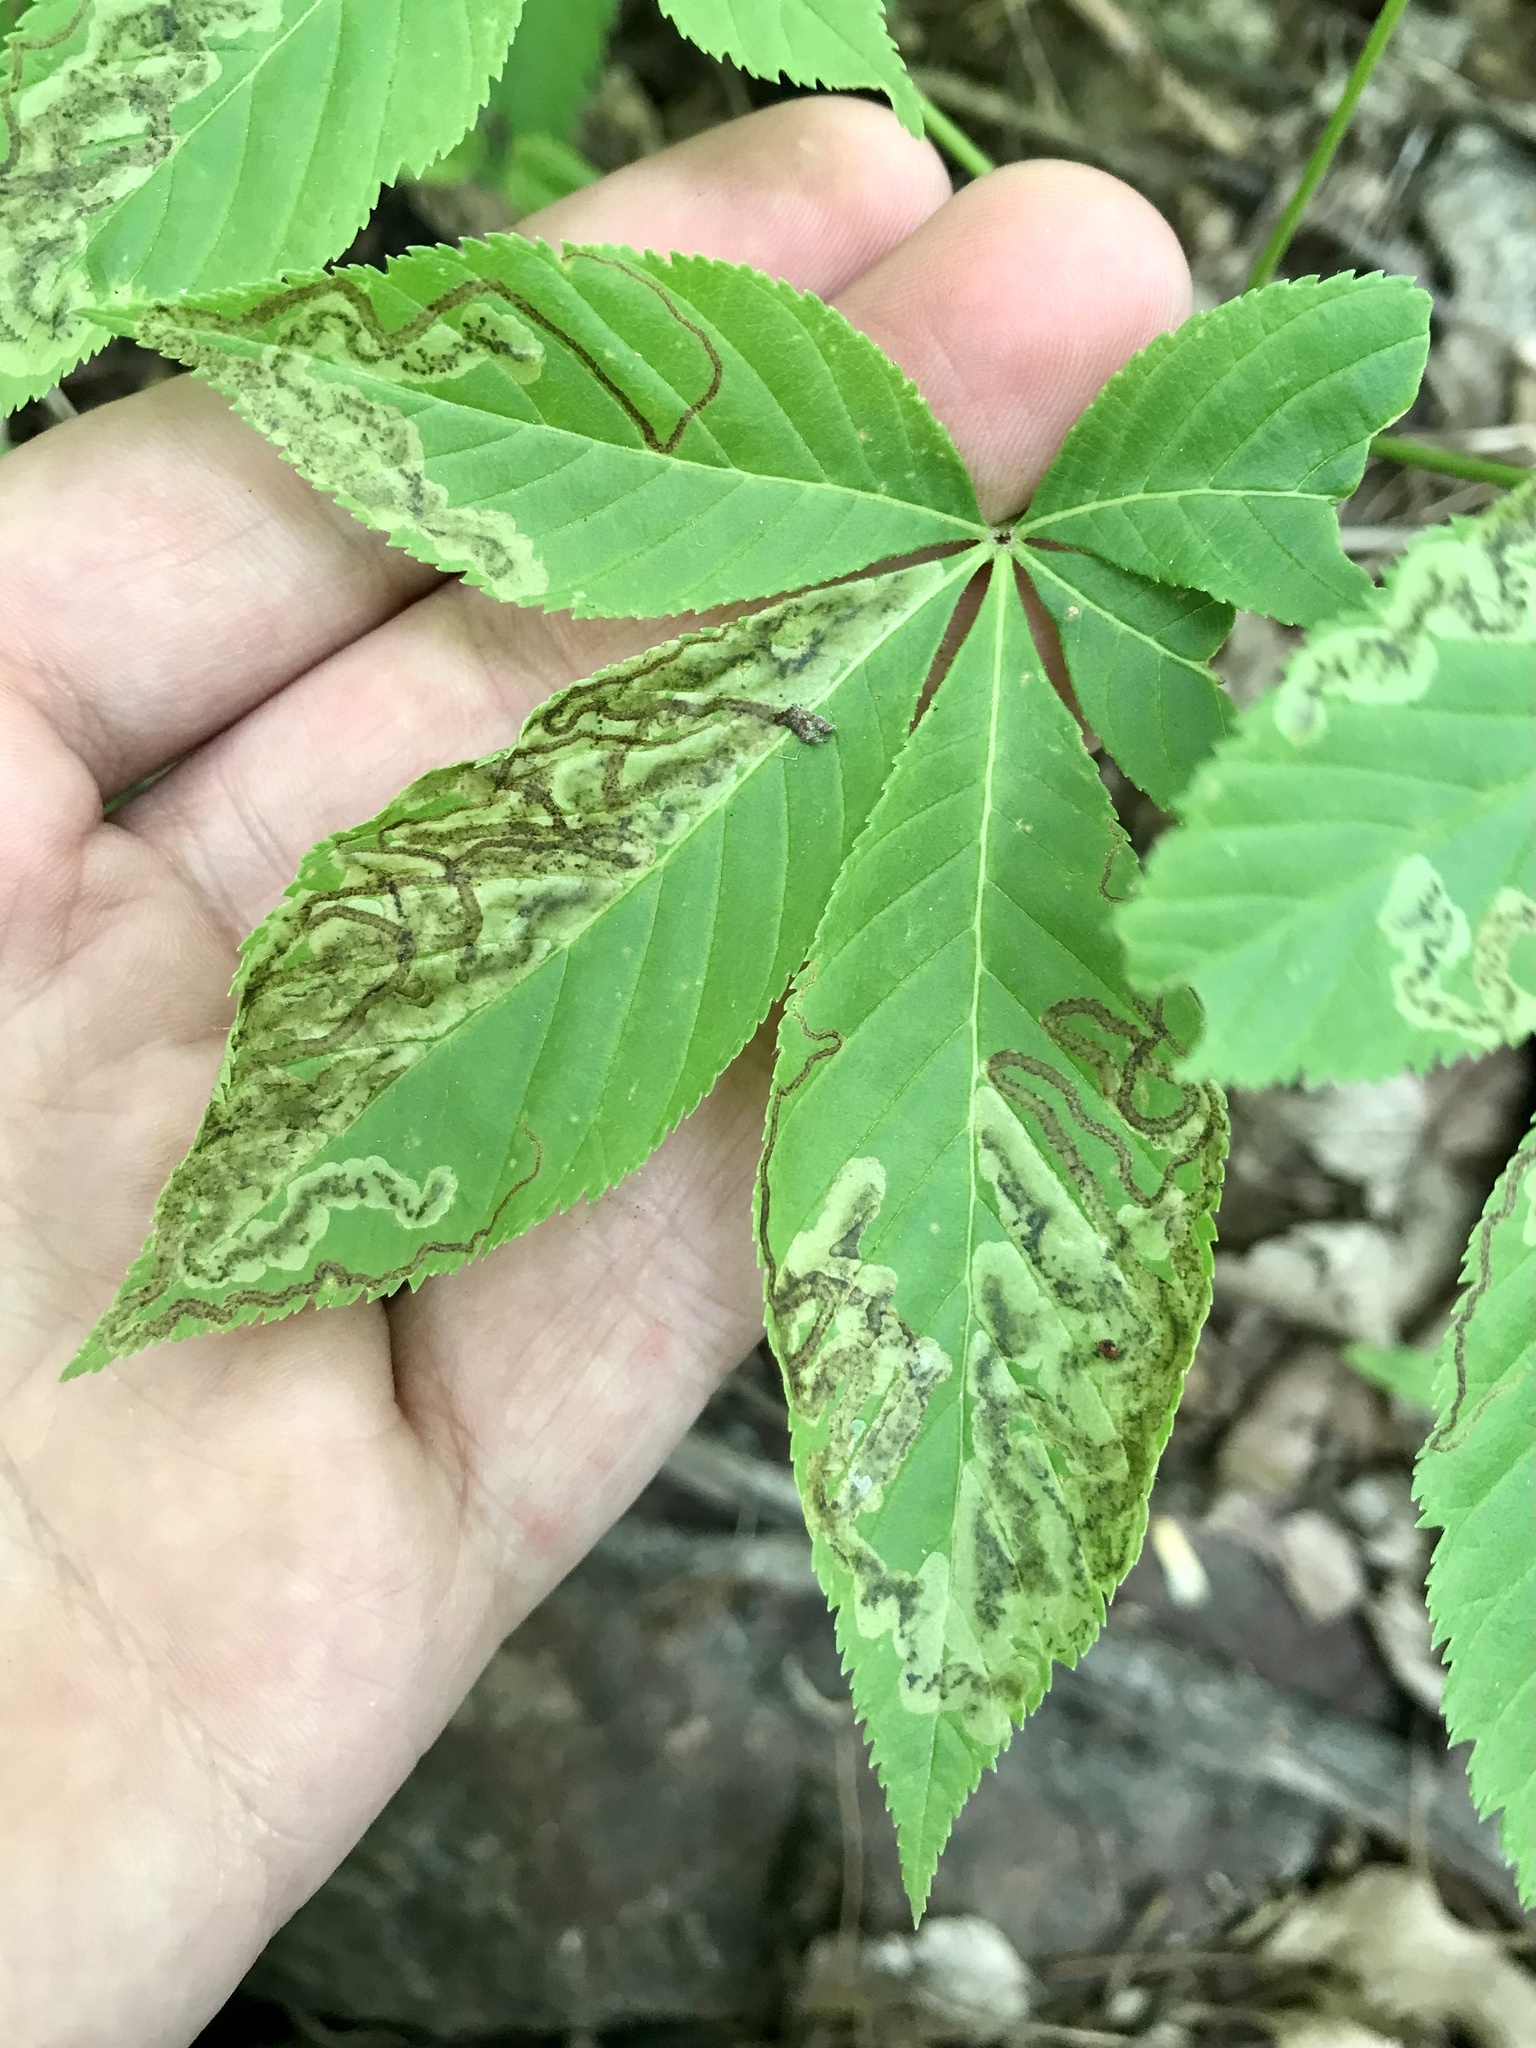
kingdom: Animalia
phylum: Arthropoda
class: Insecta
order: Diptera
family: Agromyzidae
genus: Phytomyza
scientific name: Phytomyza aesculi
